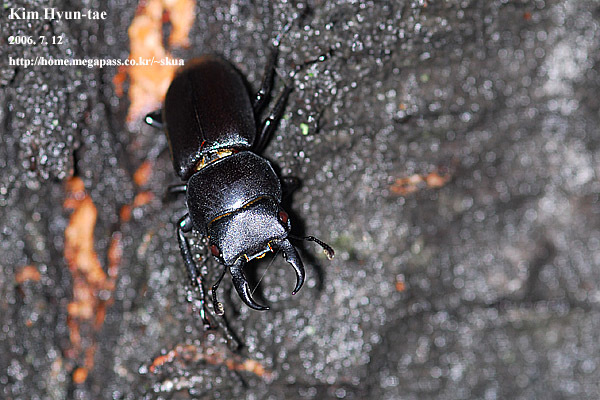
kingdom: Animalia
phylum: Arthropoda
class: Insecta
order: Coleoptera
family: Lucanidae
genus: Dorcus
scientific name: Dorcus rectus
